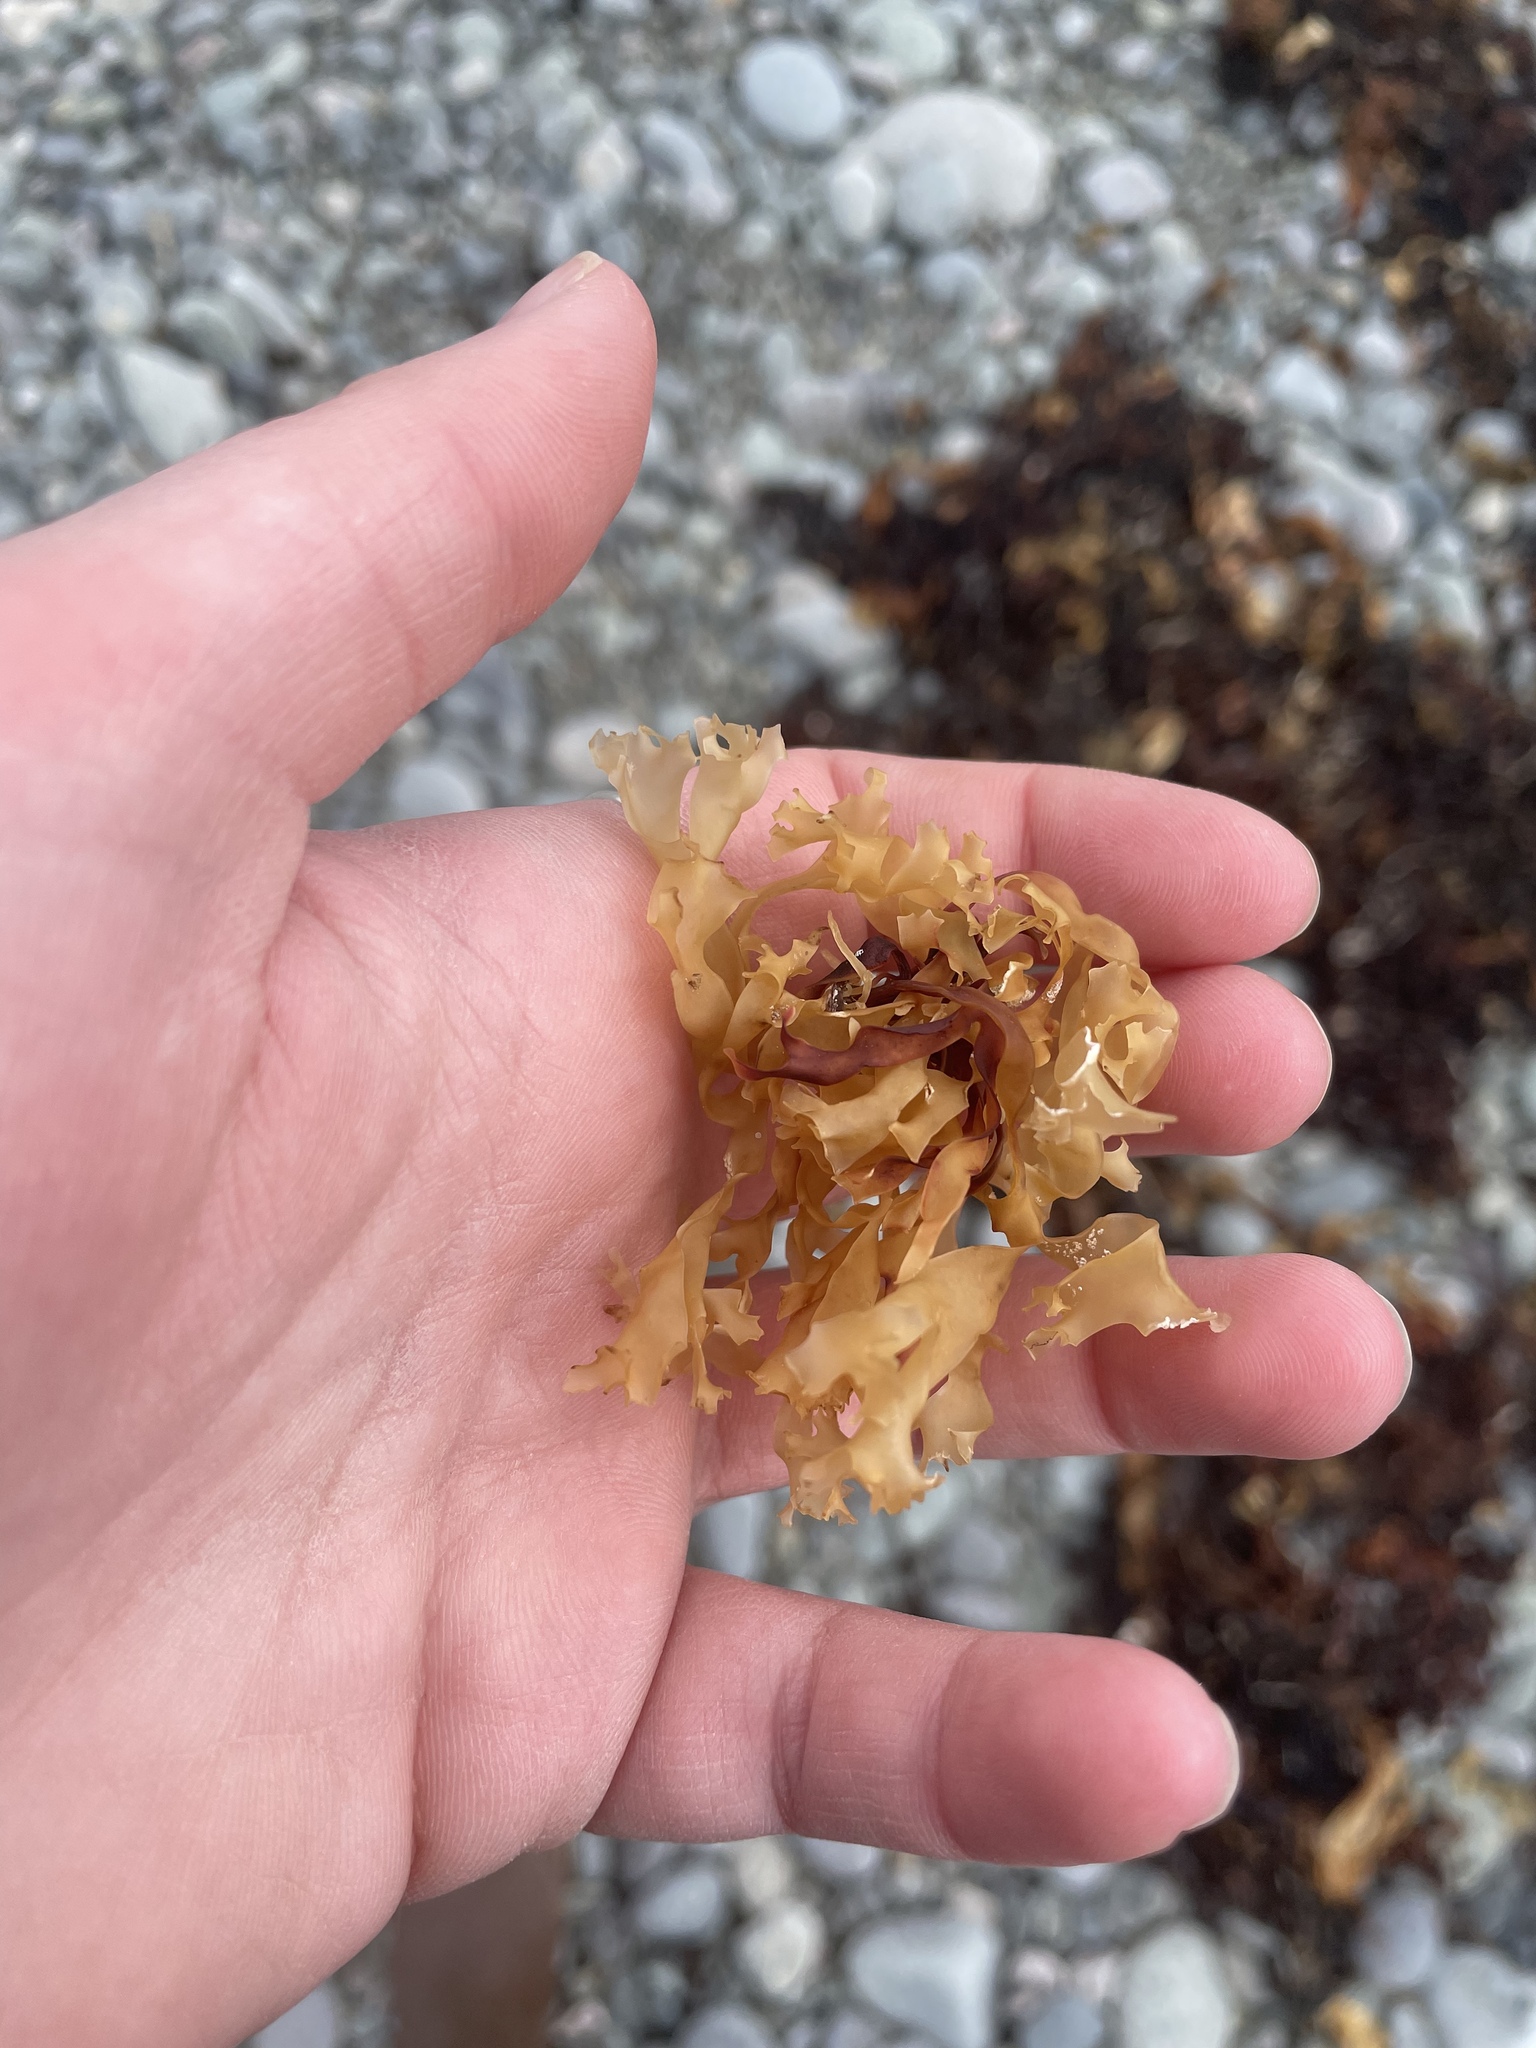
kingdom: Plantae
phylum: Rhodophyta
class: Florideophyceae
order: Gigartinales
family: Gigartinaceae
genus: Chondrus
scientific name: Chondrus crispus
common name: Carrageen
